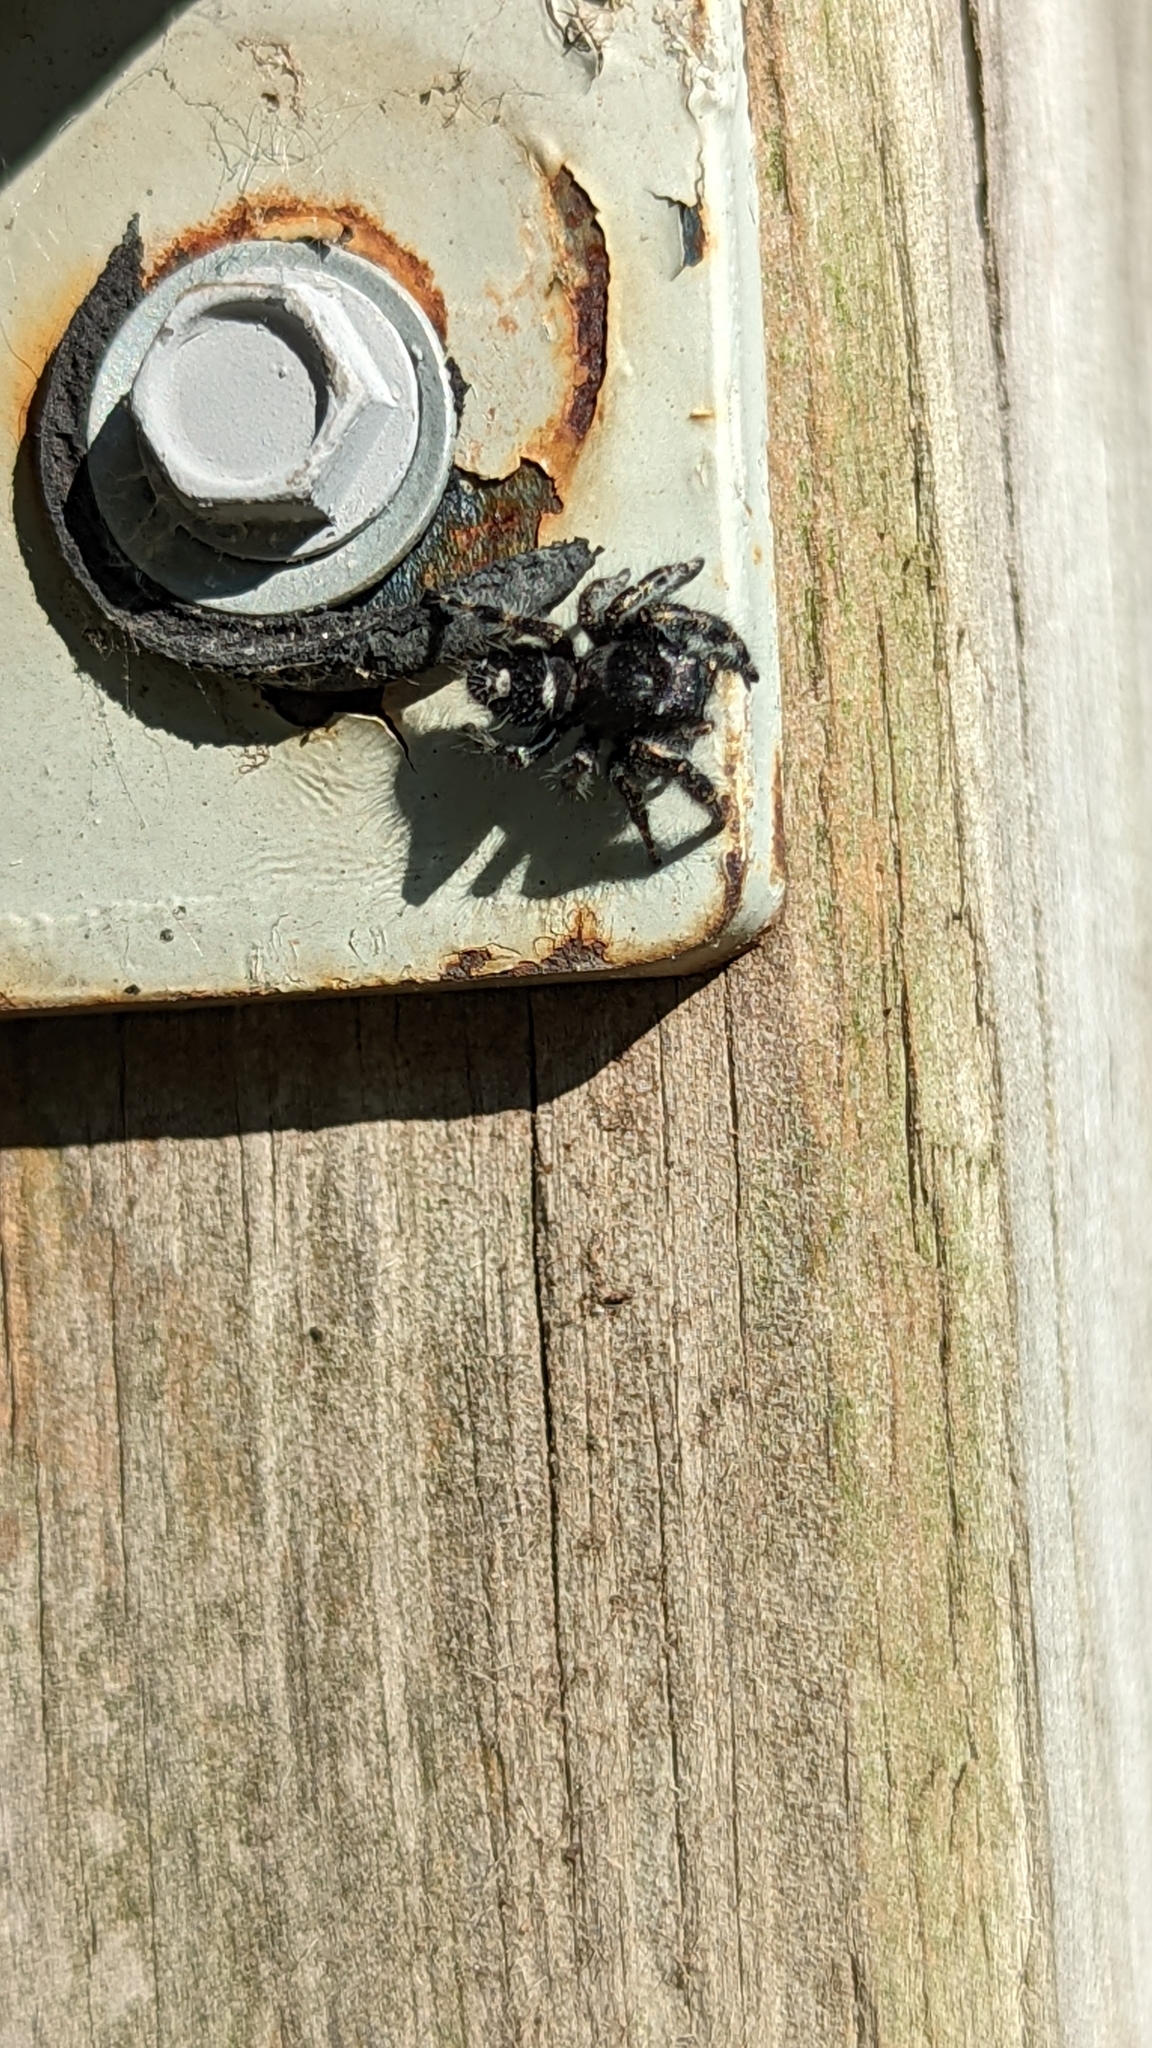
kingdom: Animalia
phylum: Arthropoda
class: Arachnida
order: Araneae
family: Salticidae
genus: Phidippus
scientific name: Phidippus audax
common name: Bold jumper
